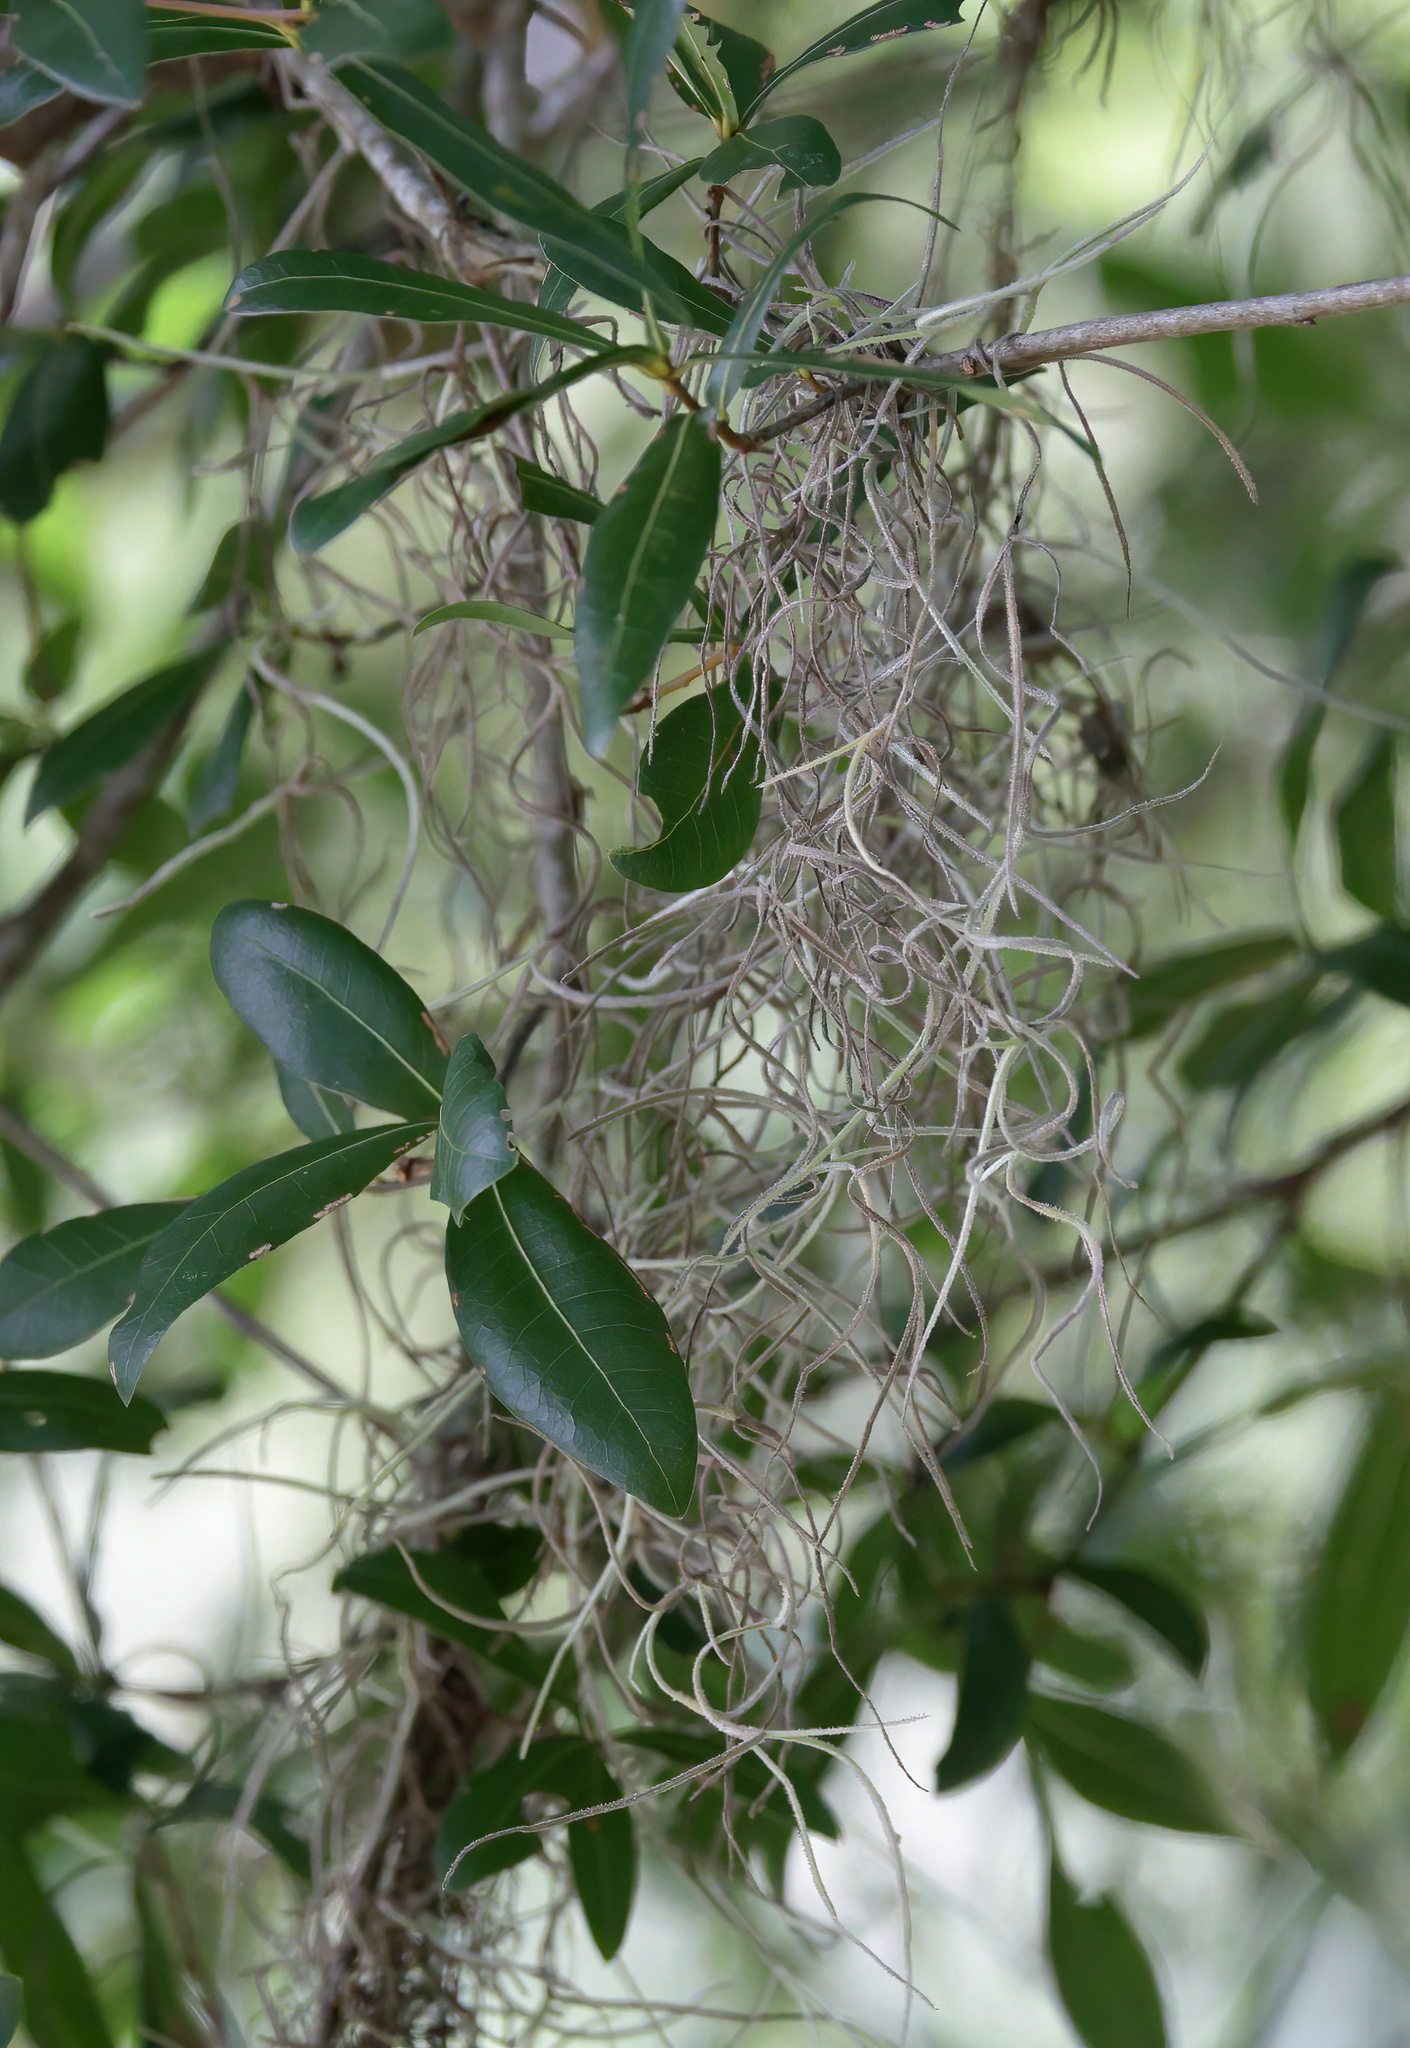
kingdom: Plantae
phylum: Tracheophyta
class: Liliopsida
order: Poales
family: Bromeliaceae
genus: Tillandsia
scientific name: Tillandsia usneoides
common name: Spanish moss
